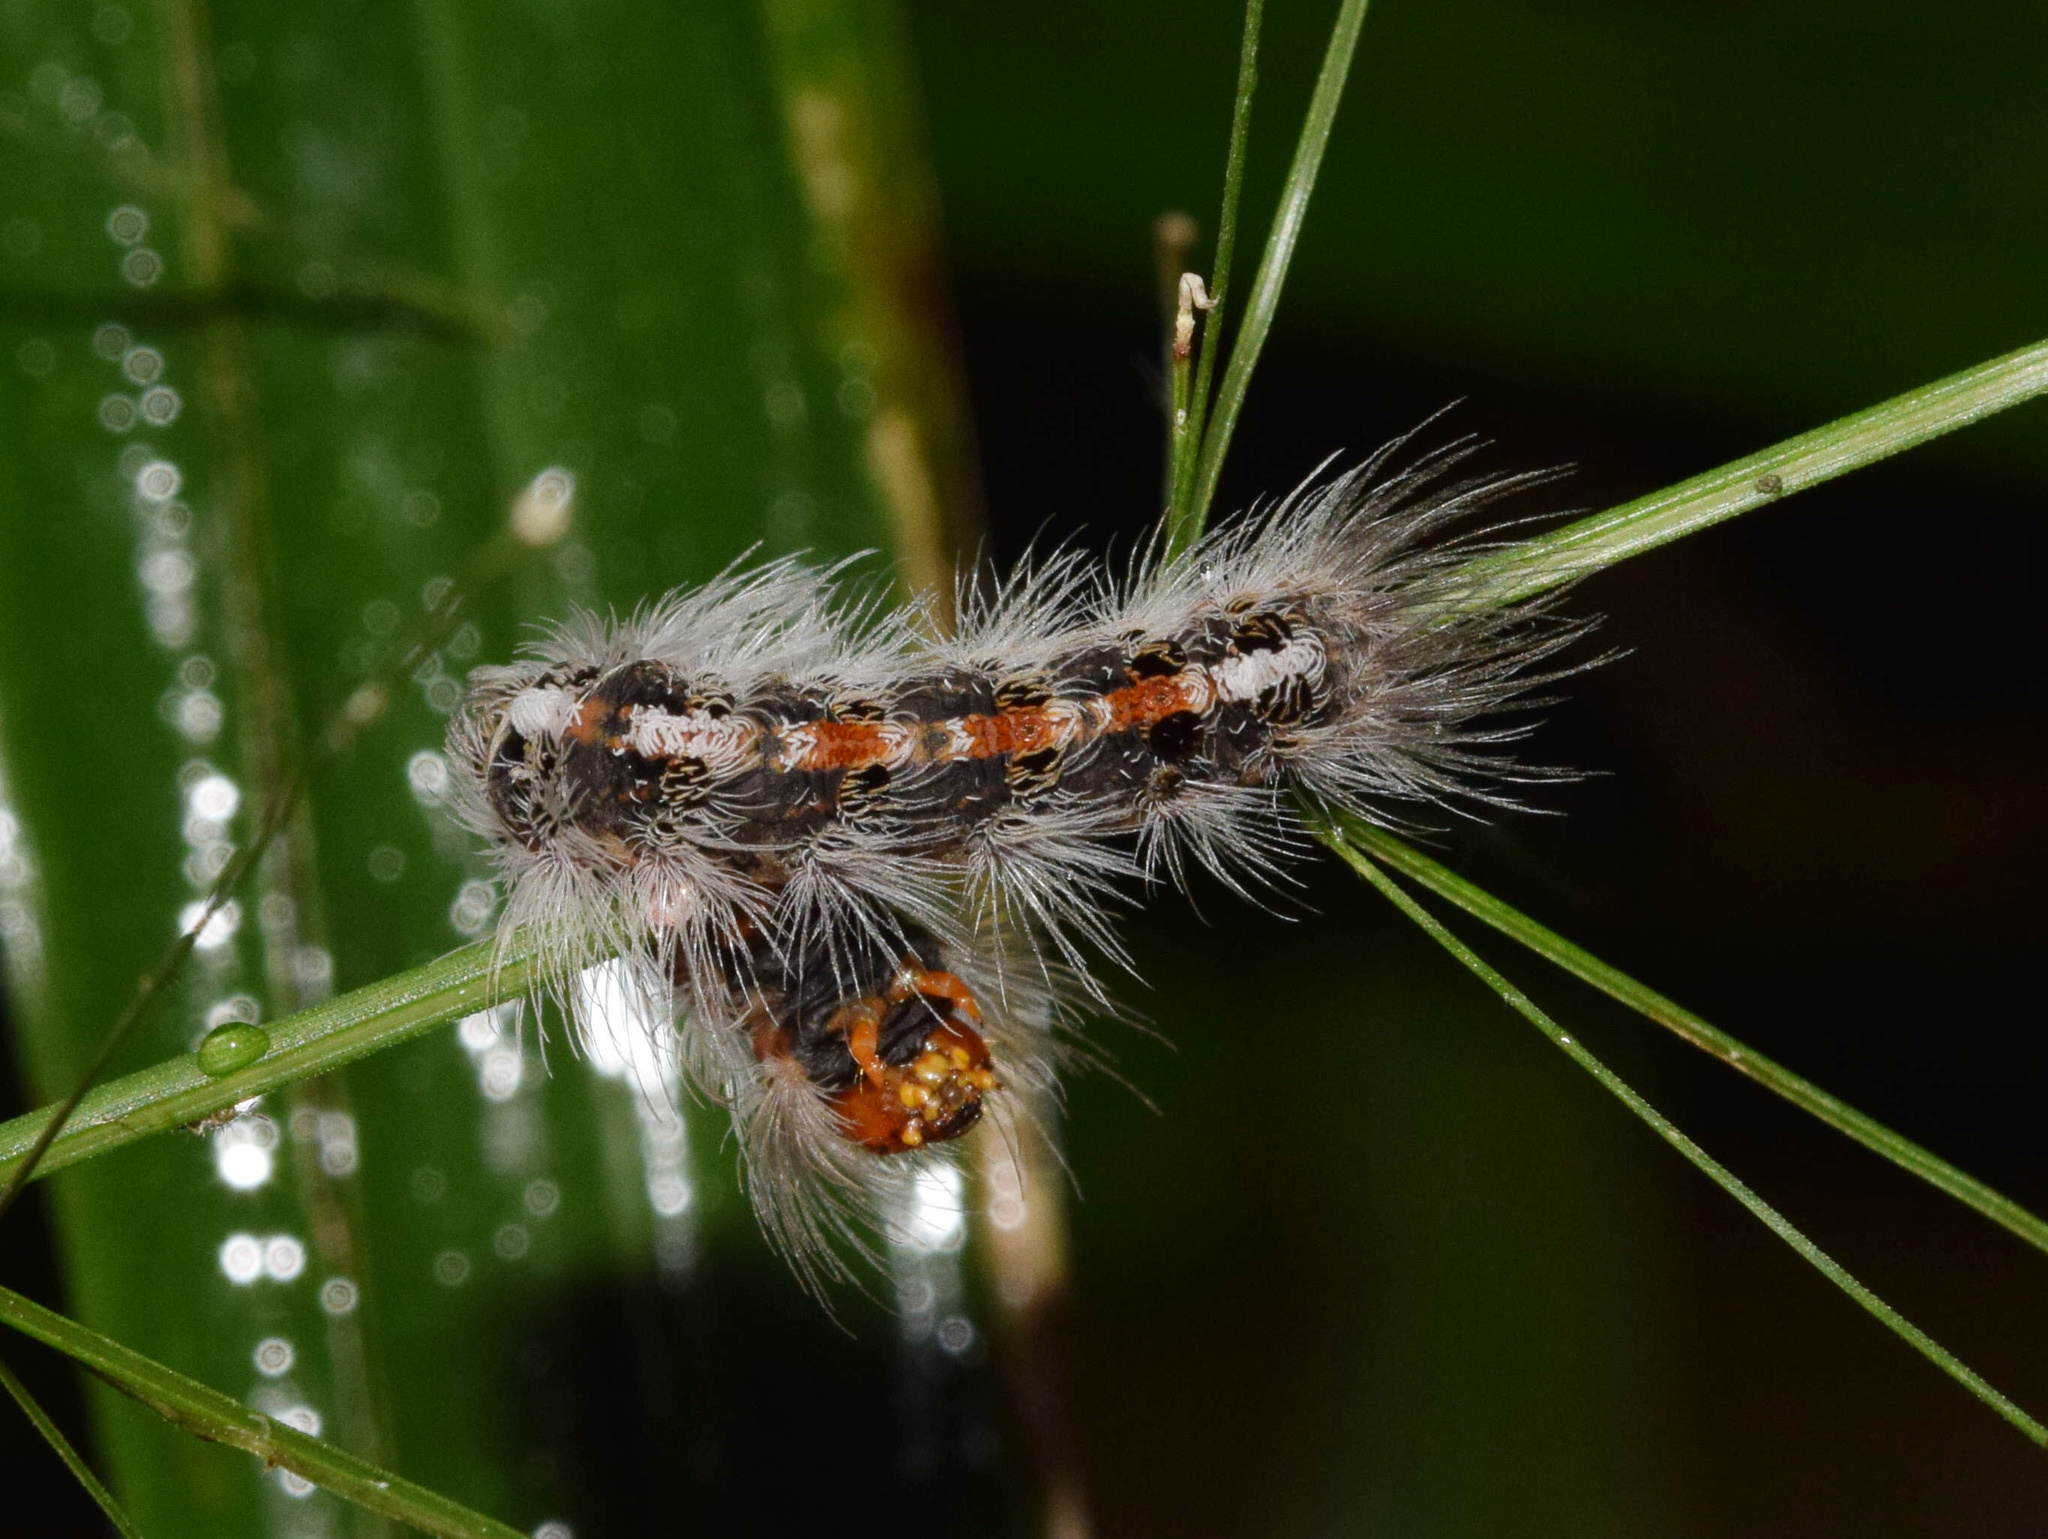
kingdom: Animalia
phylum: Arthropoda
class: Insecta
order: Lepidoptera
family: Erebidae
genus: Euproctis
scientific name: Euproctis punctifera
